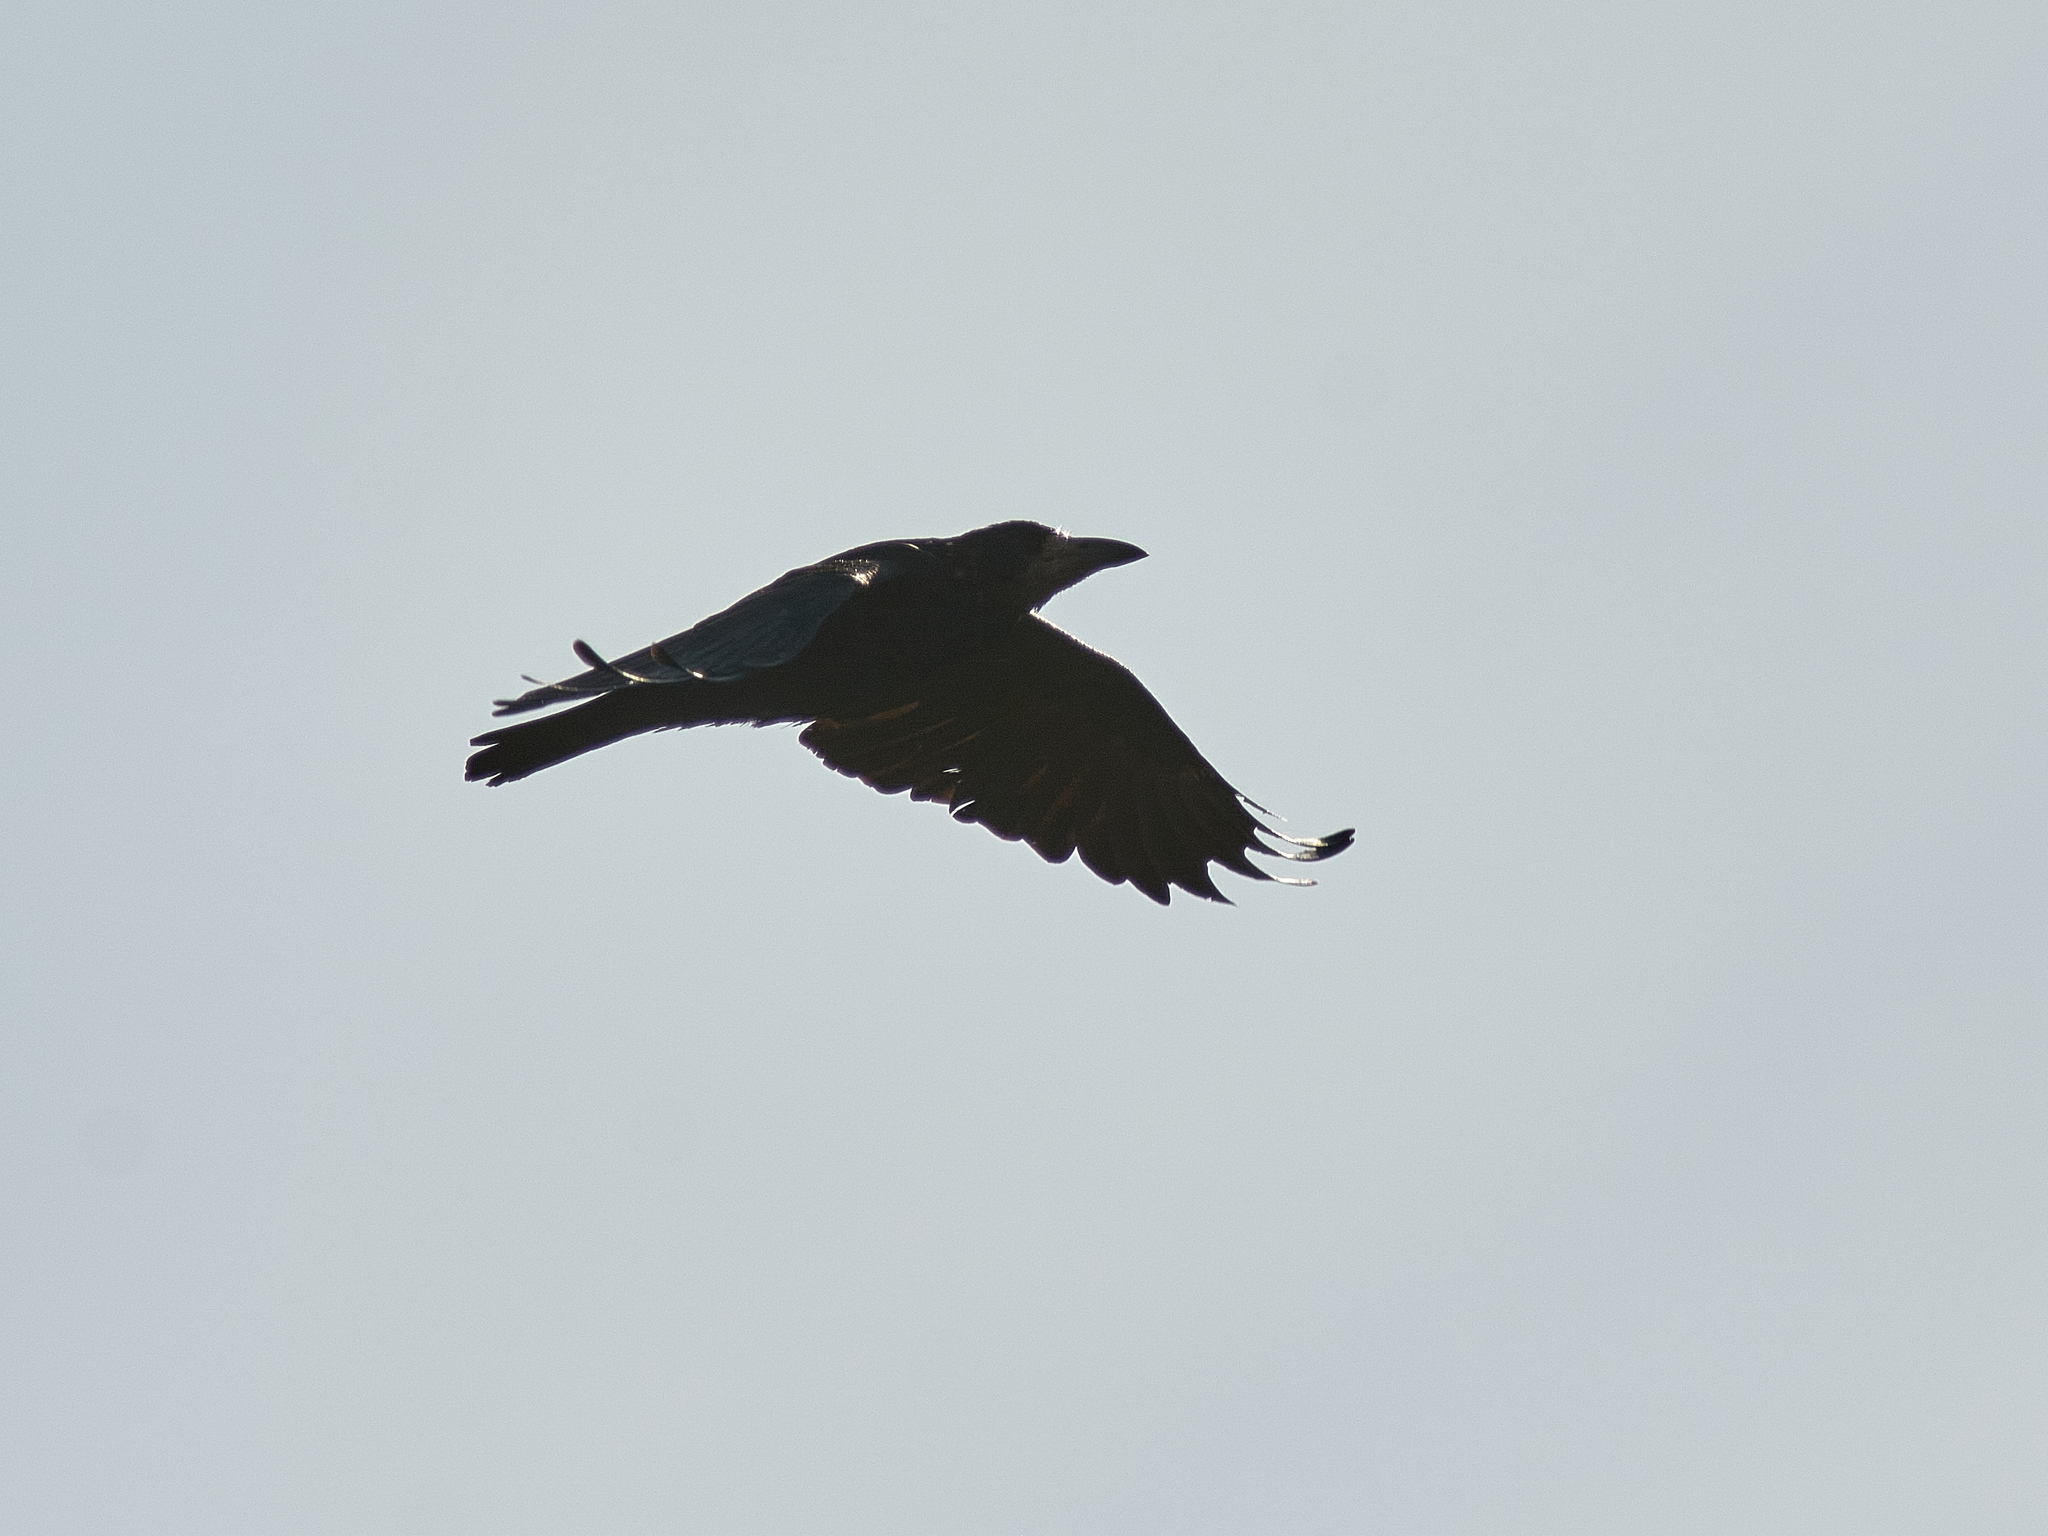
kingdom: Animalia
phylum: Chordata
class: Aves
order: Passeriformes
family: Corvidae
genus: Corvus
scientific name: Corvus frugilegus
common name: Rook
